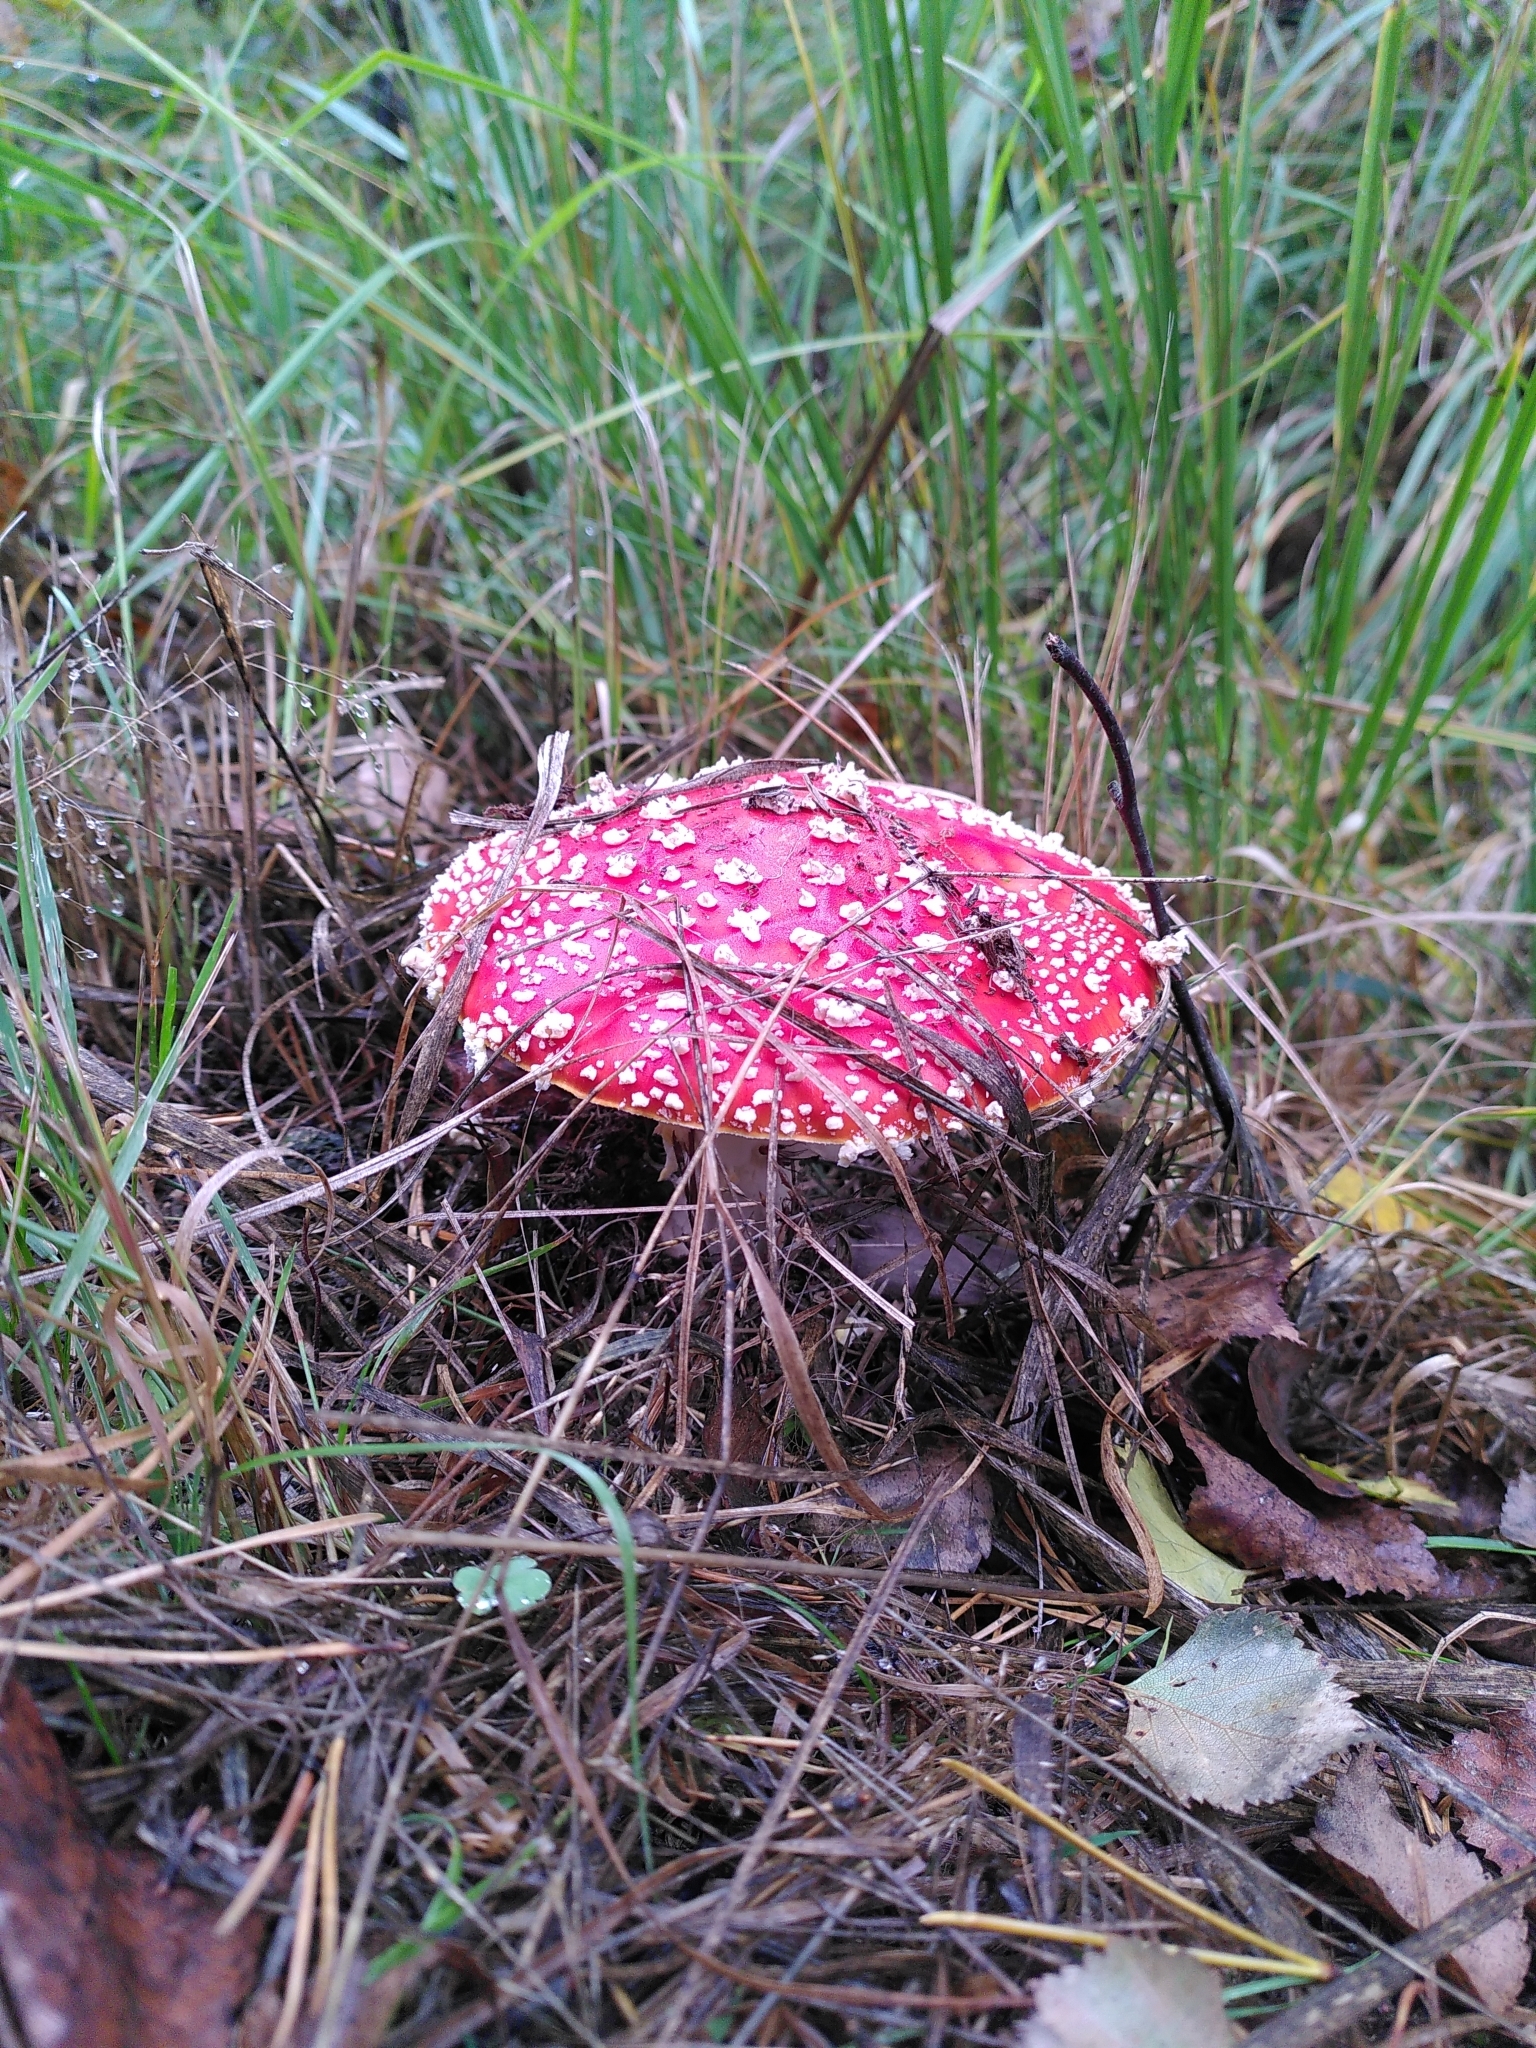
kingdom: Fungi
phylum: Basidiomycota
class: Agaricomycetes
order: Agaricales
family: Amanitaceae
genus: Amanita
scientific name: Amanita muscaria
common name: Fly agaric
